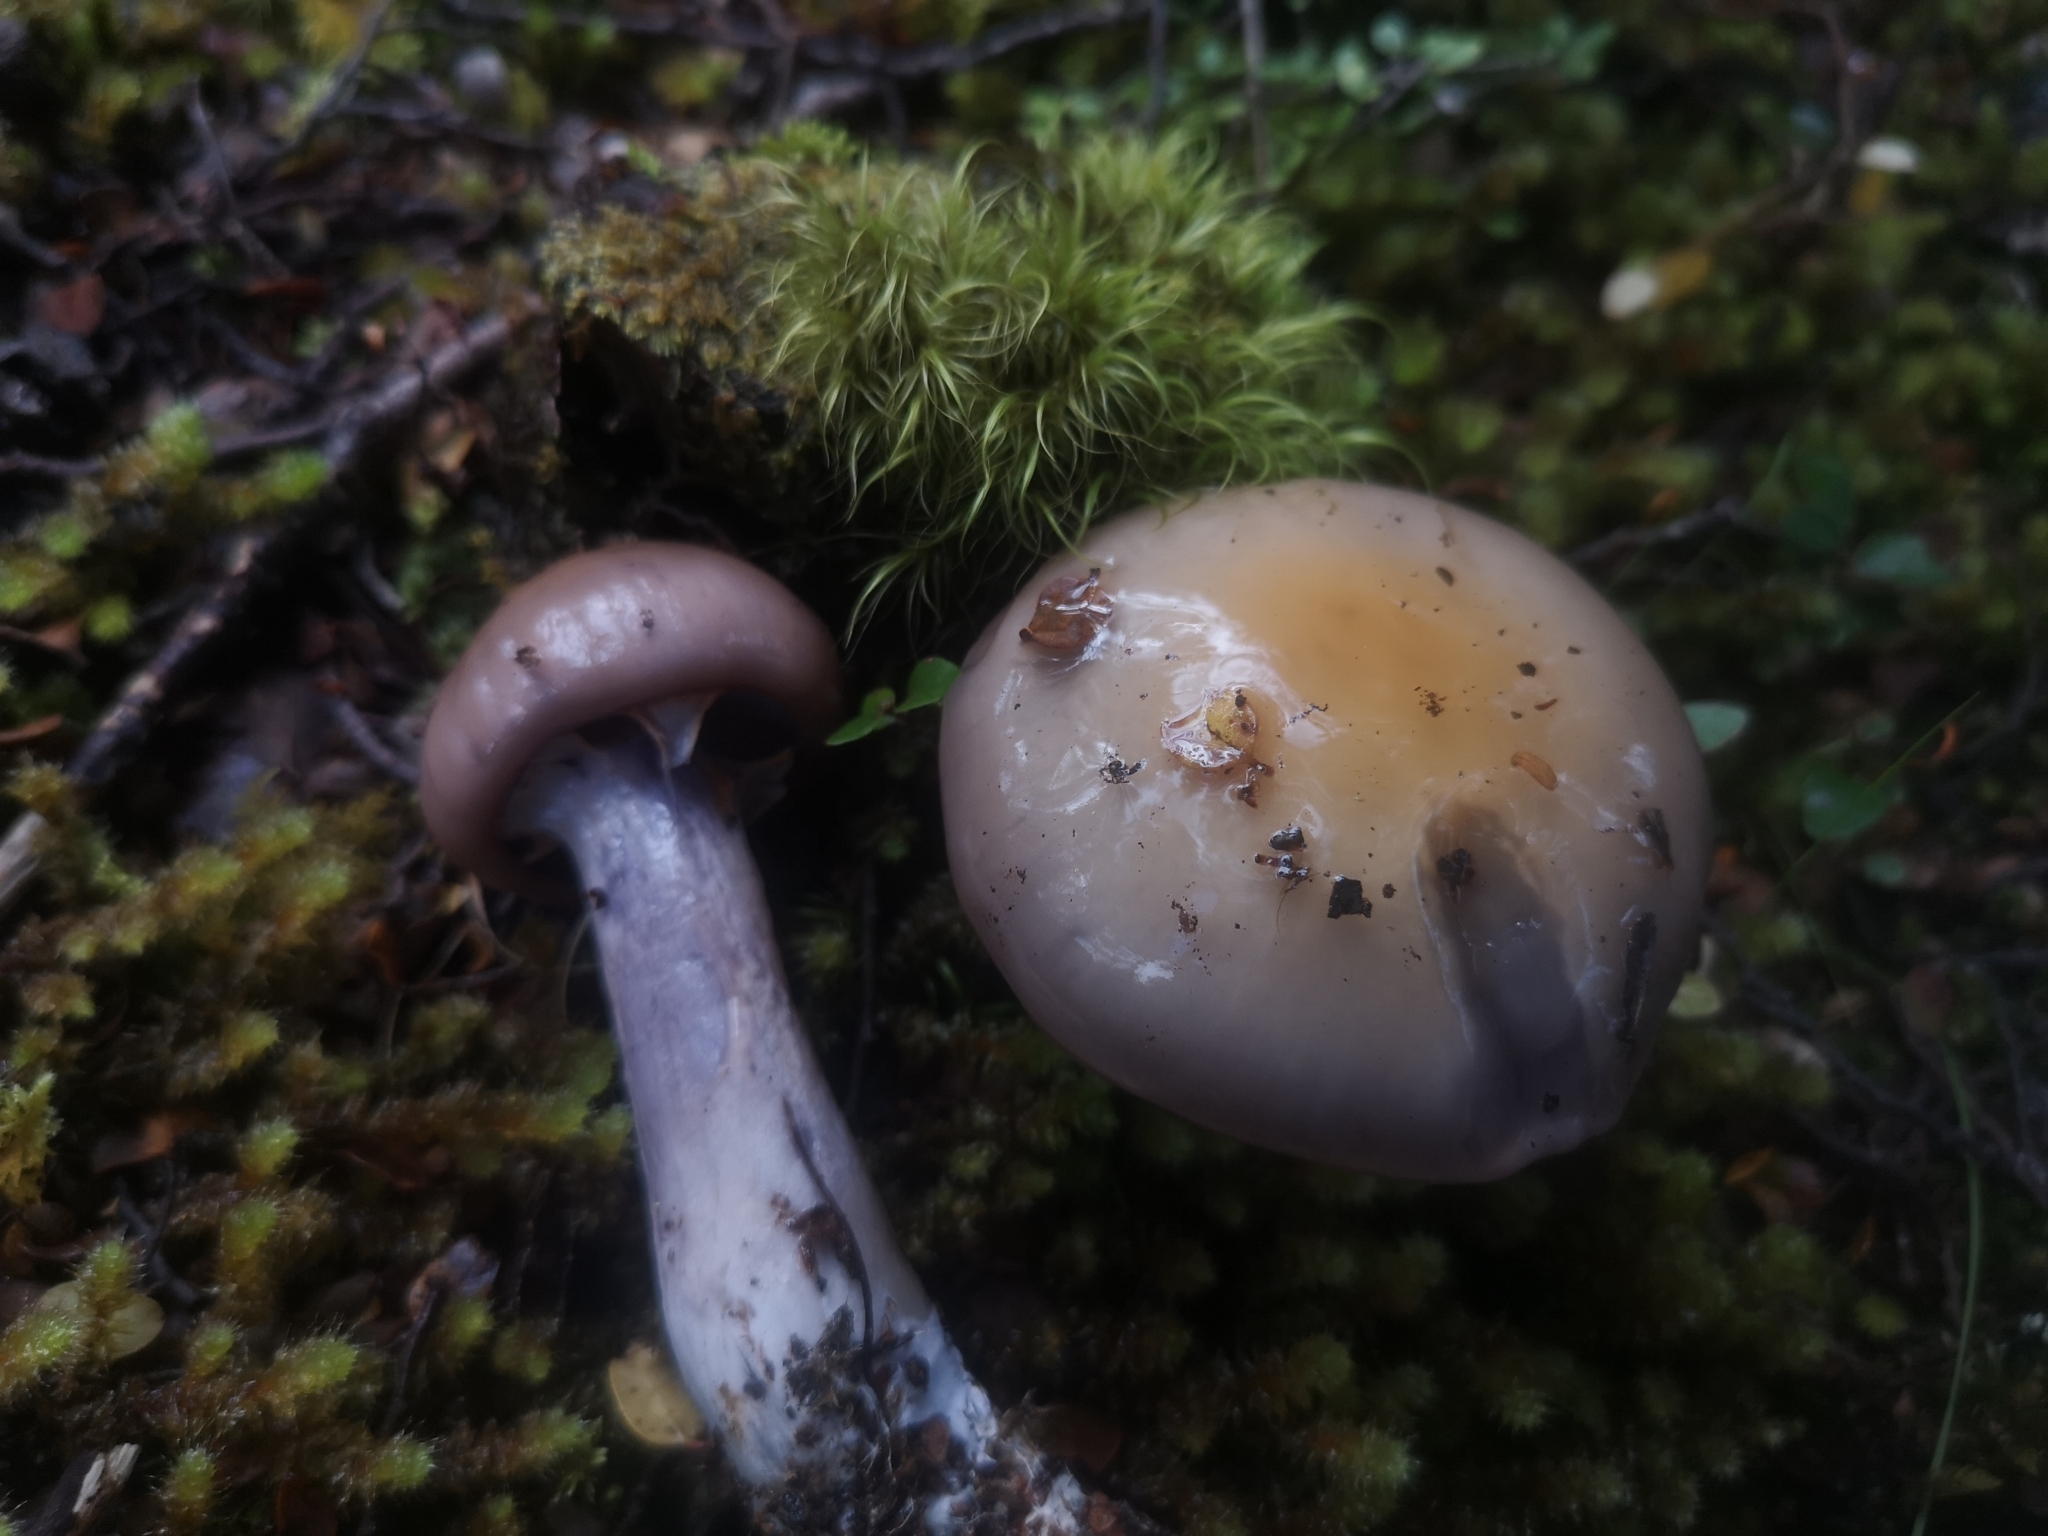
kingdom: Fungi
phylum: Basidiomycota
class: Agaricomycetes
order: Agaricales
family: Cortinariaceae
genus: Cortinarius
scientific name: Cortinarius taylorianus
